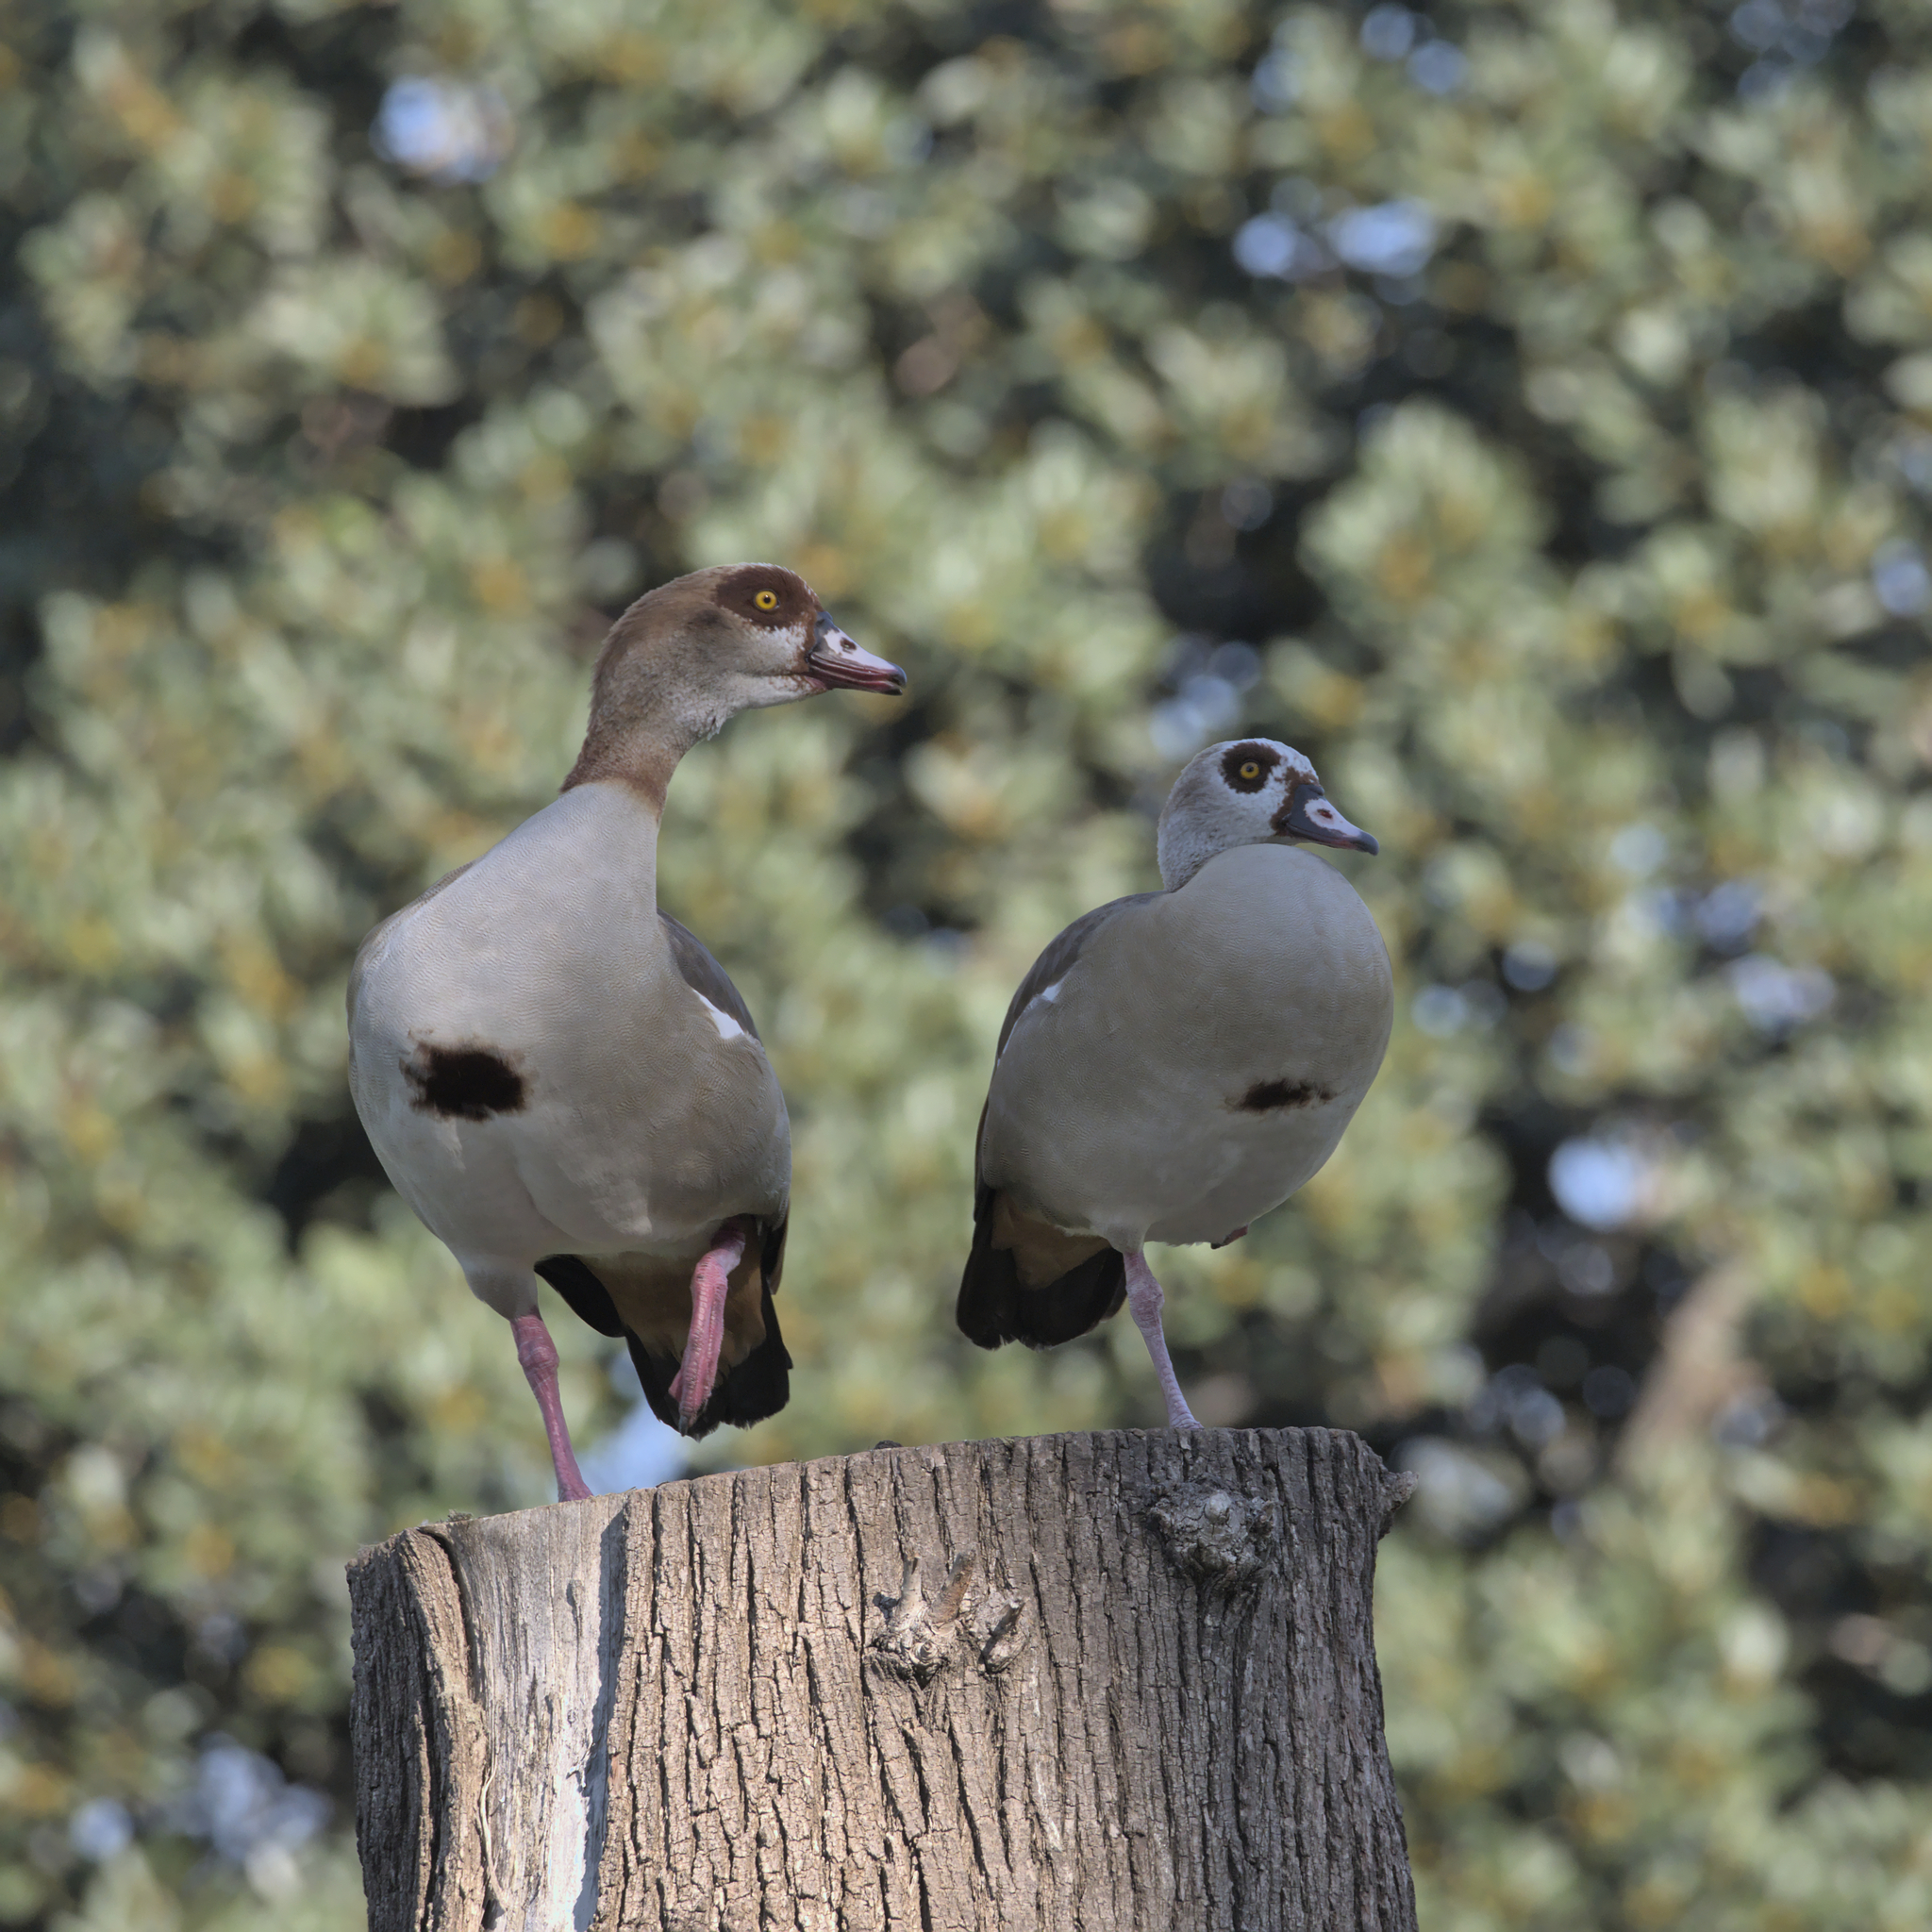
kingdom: Animalia
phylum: Chordata
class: Aves
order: Anseriformes
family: Anatidae
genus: Alopochen
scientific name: Alopochen aegyptiaca
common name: Egyptian goose
